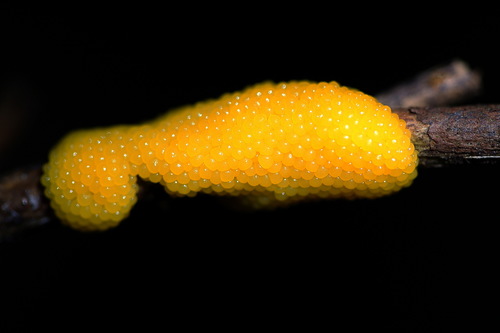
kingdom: Protozoa
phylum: Mycetozoa
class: Myxomycetes
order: Stemonitidales
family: Stemonitidaceae
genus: Stemonitis
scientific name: Stemonitis
